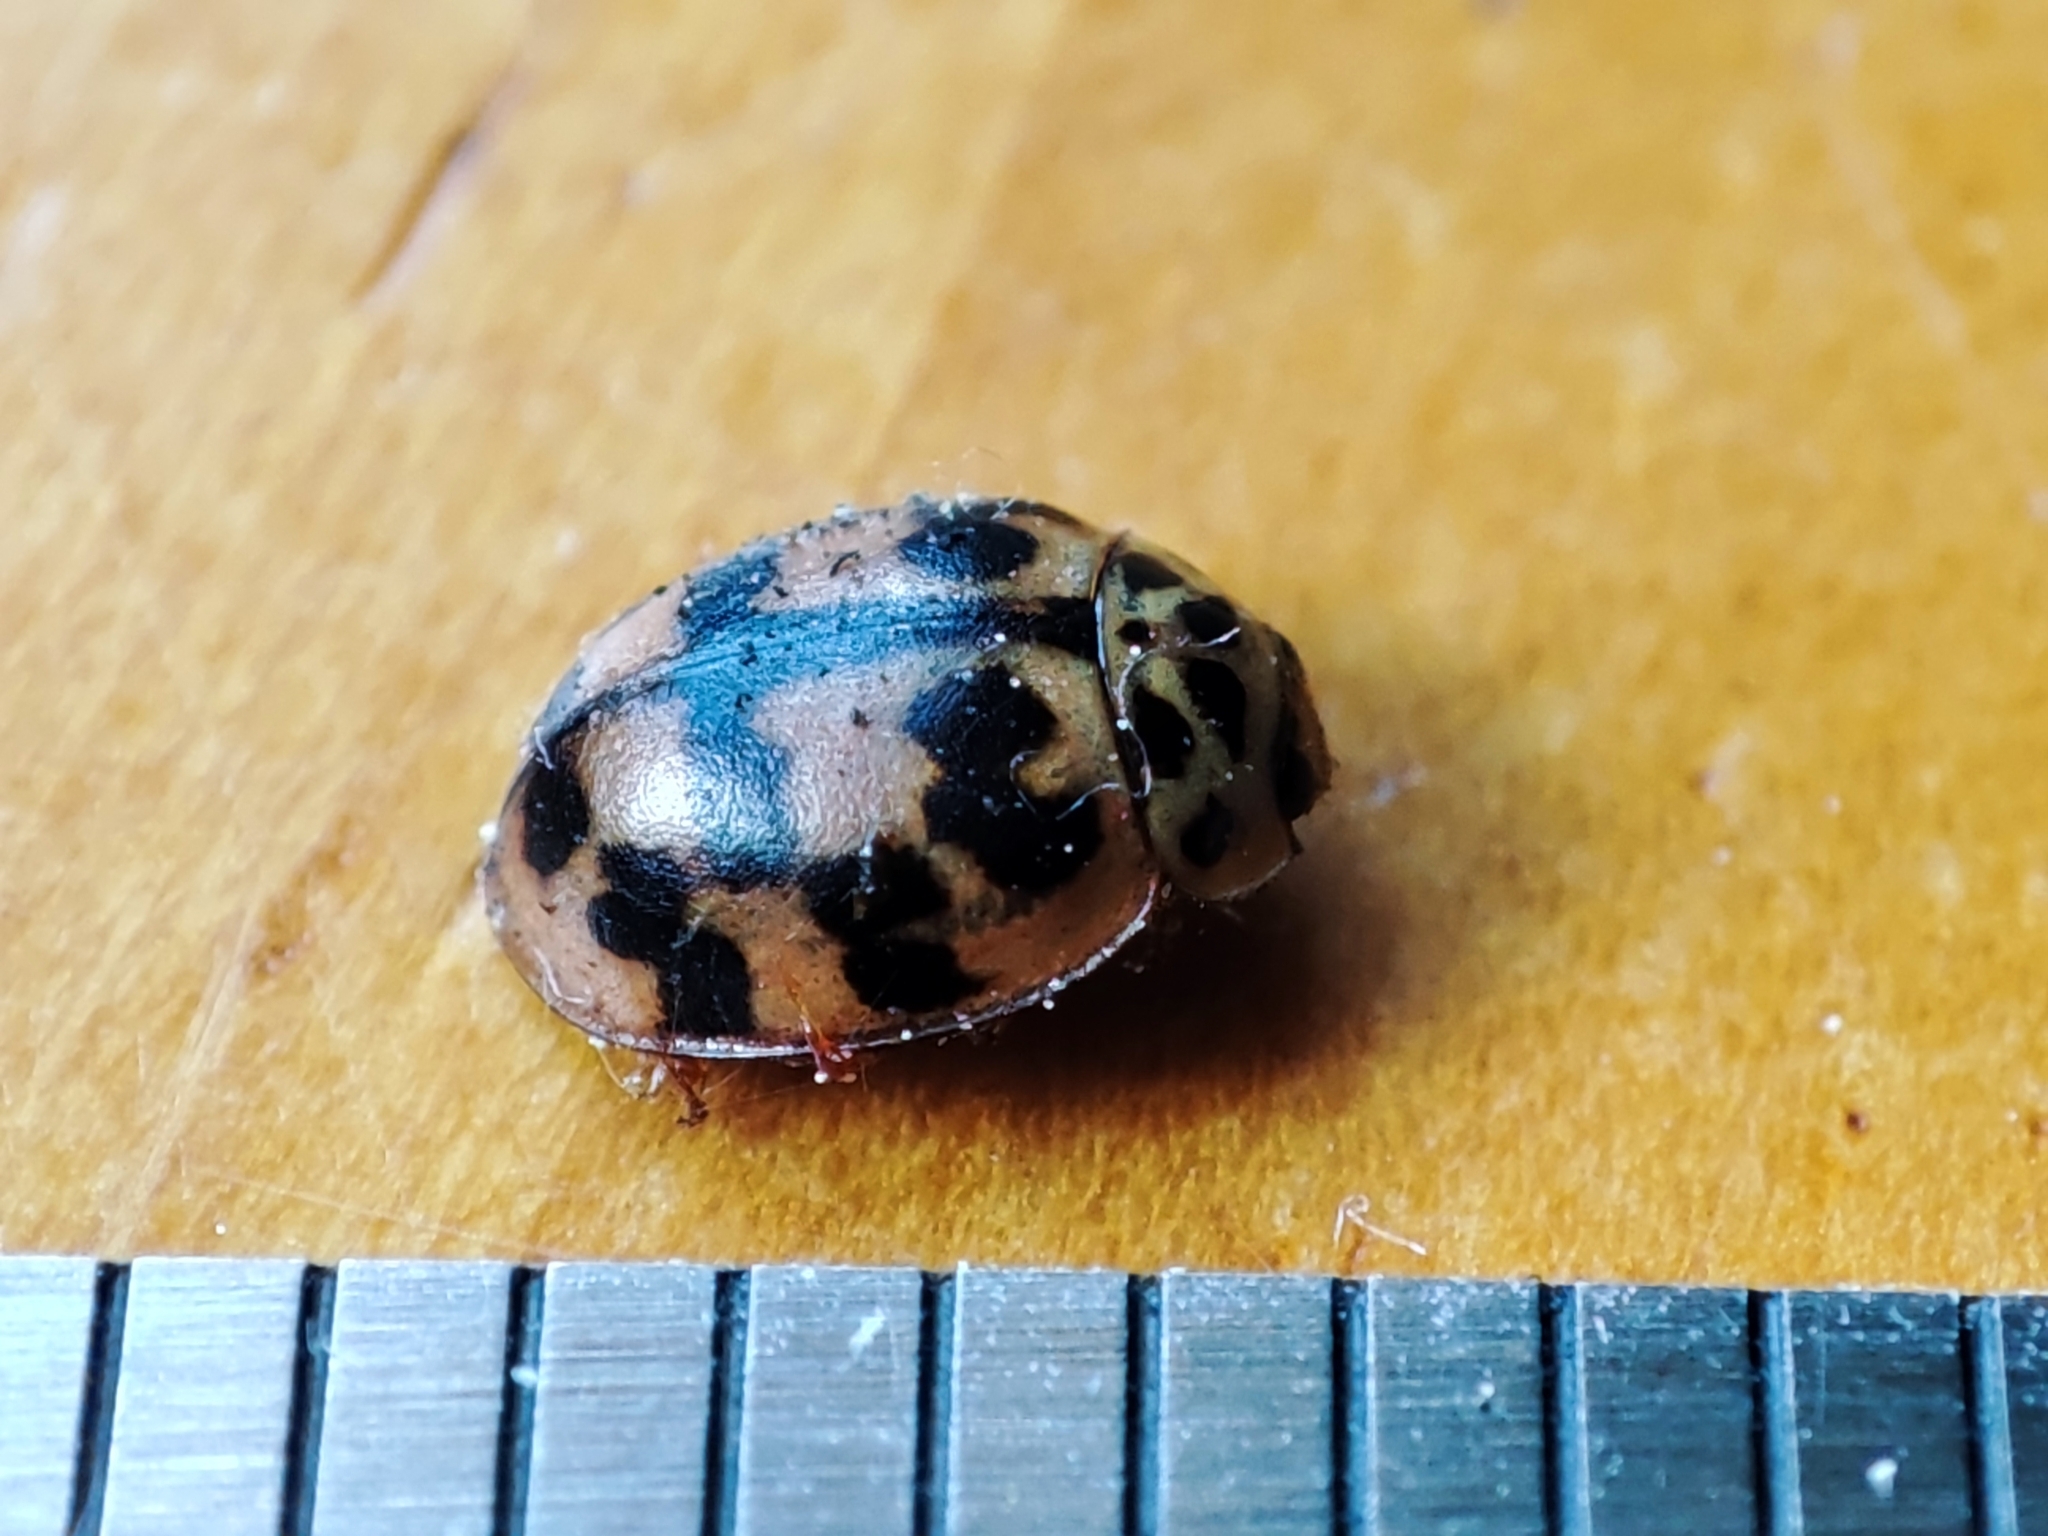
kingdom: Animalia
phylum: Arthropoda
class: Insecta
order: Coleoptera
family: Coccinellidae
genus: Oenopia
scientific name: Oenopia conglobata
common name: Ladybird beetle
